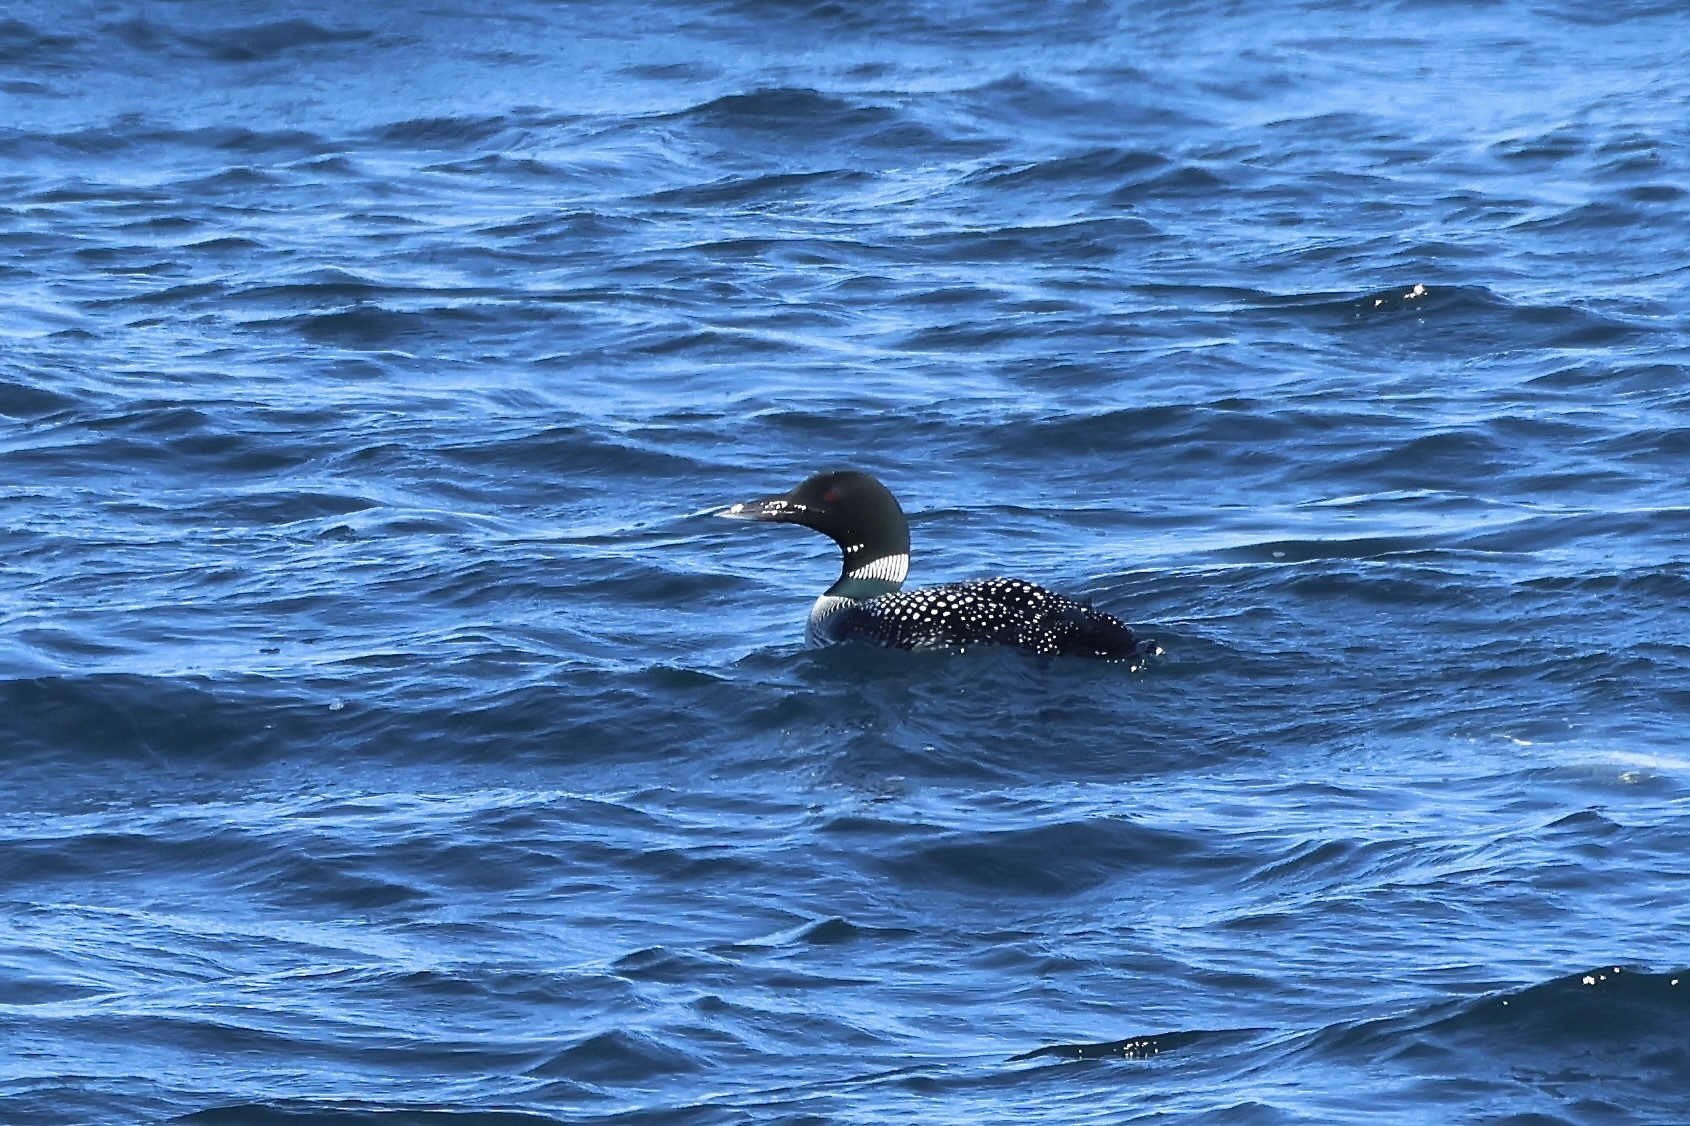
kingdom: Animalia
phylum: Chordata
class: Aves
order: Gaviiformes
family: Gaviidae
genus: Gavia
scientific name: Gavia immer
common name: Common loon
